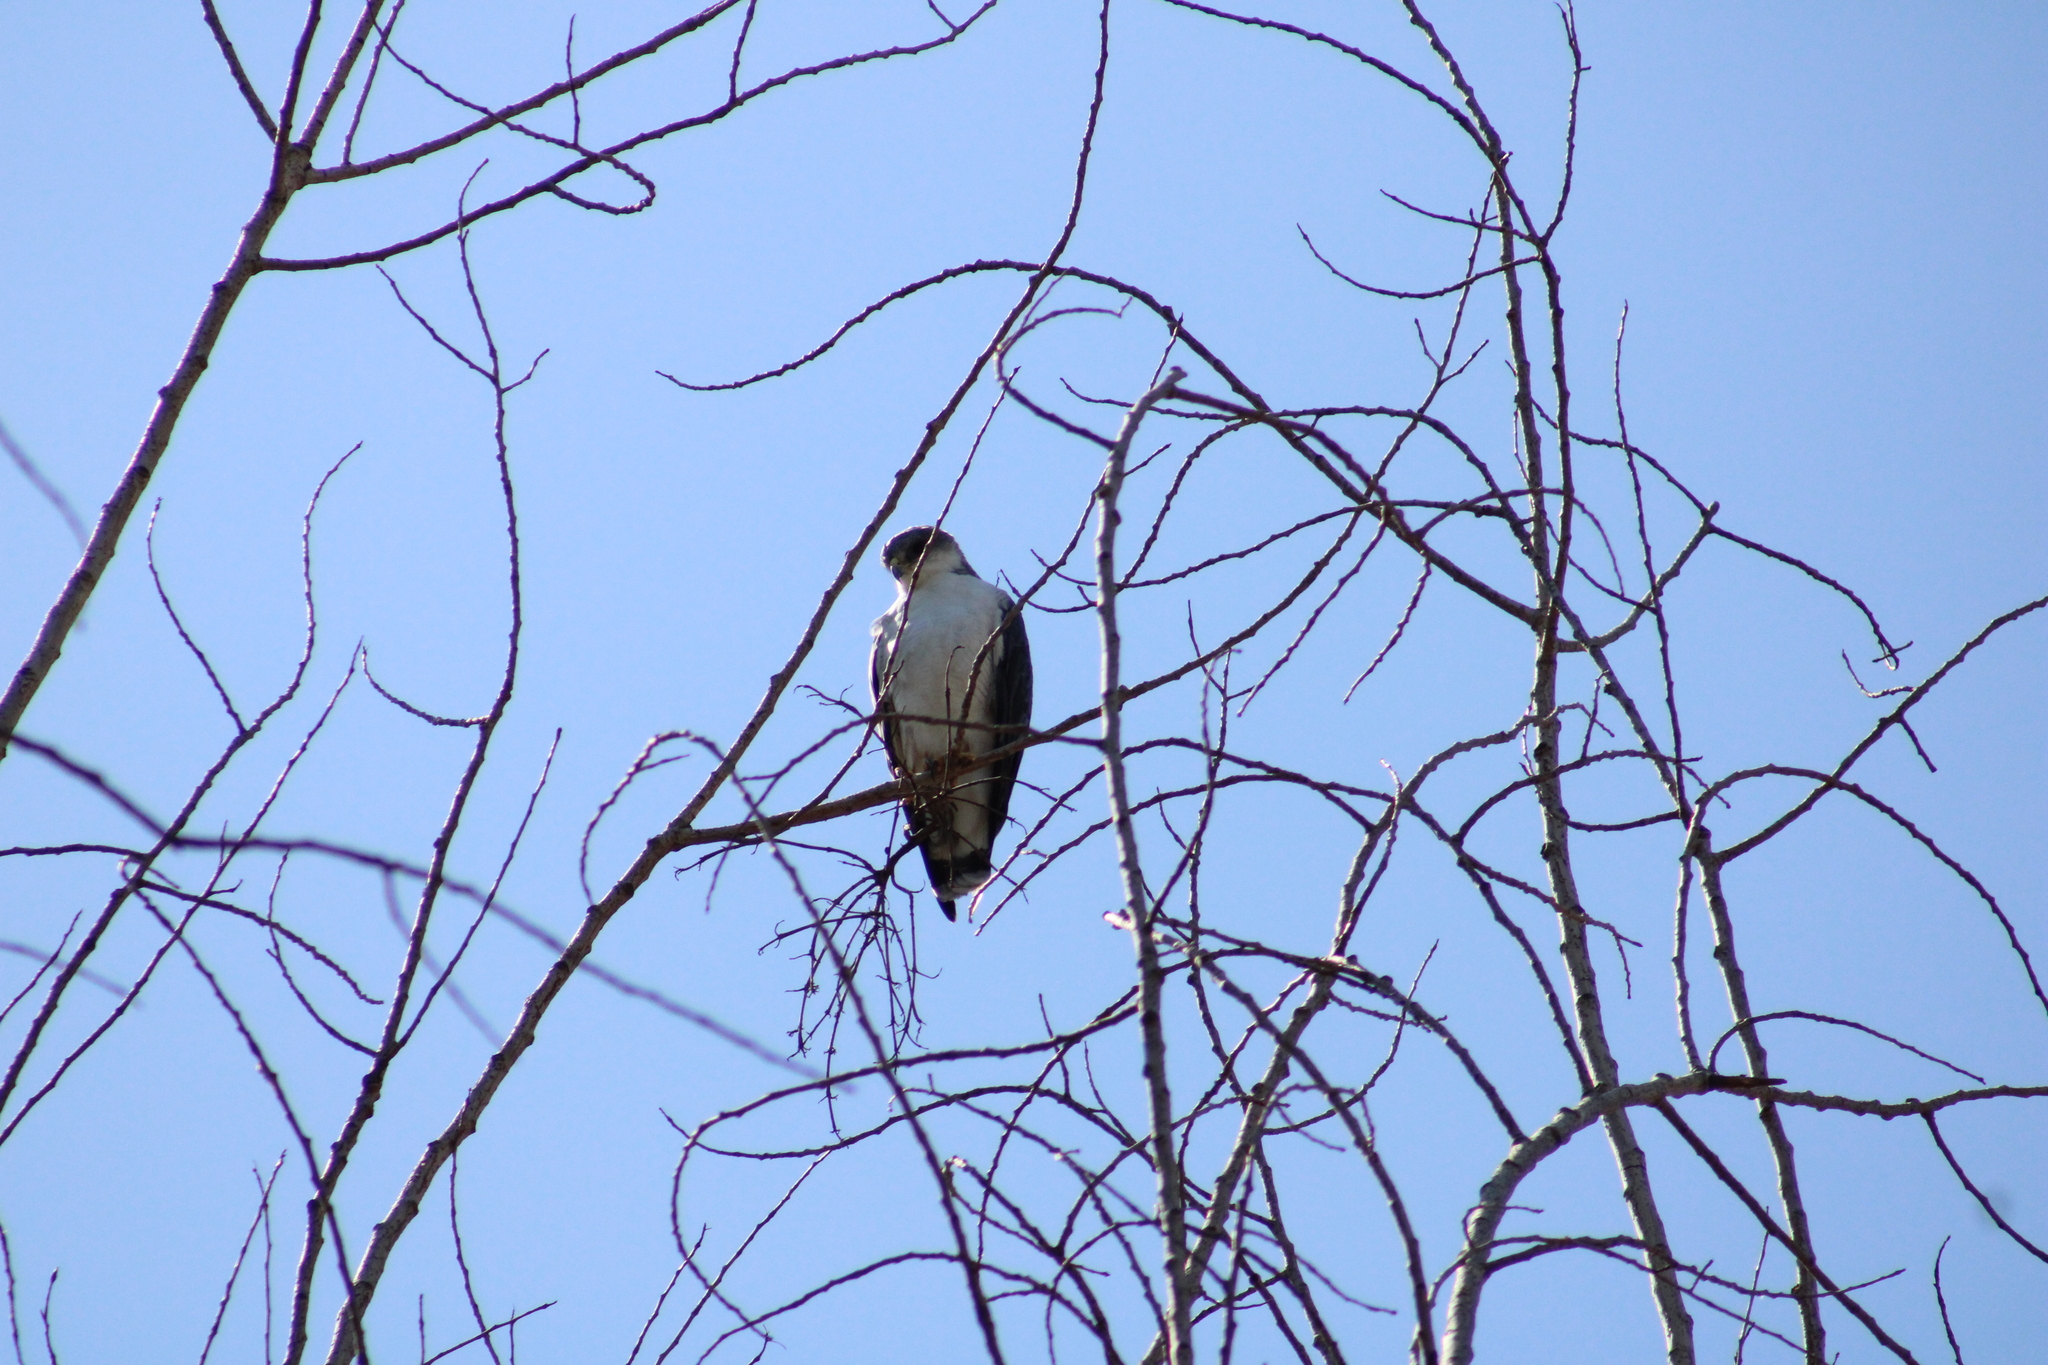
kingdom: Animalia
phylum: Chordata
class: Aves
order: Accipitriformes
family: Accipitridae
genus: Buteo
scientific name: Buteo polyosoma
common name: Variable hawk
